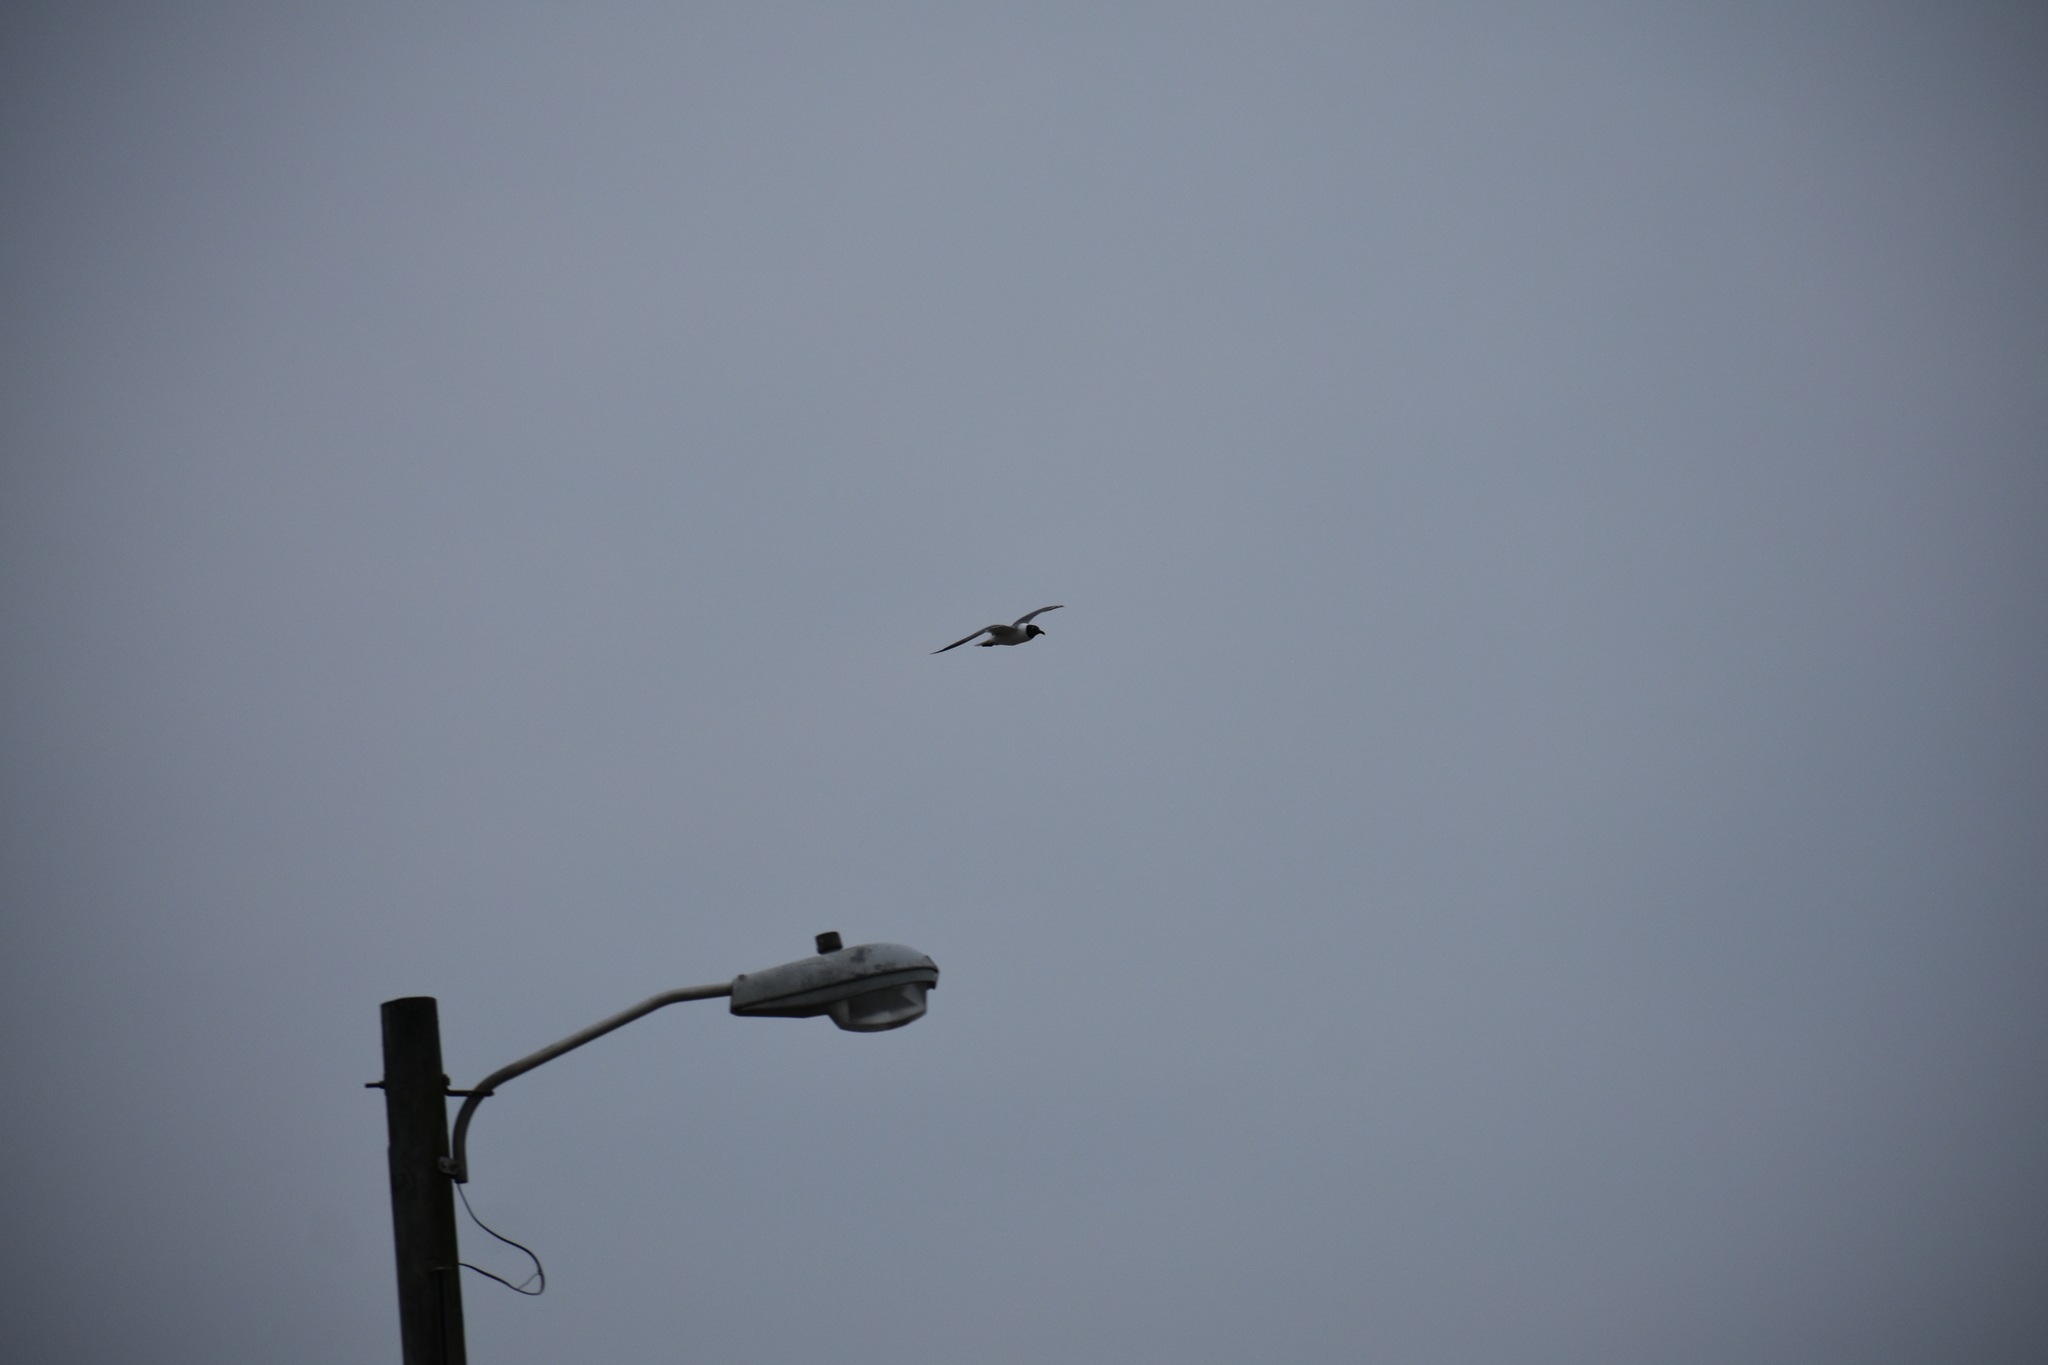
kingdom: Animalia
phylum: Chordata
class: Aves
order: Charadriiformes
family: Laridae
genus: Leucophaeus
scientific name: Leucophaeus atricilla
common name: Laughing gull
